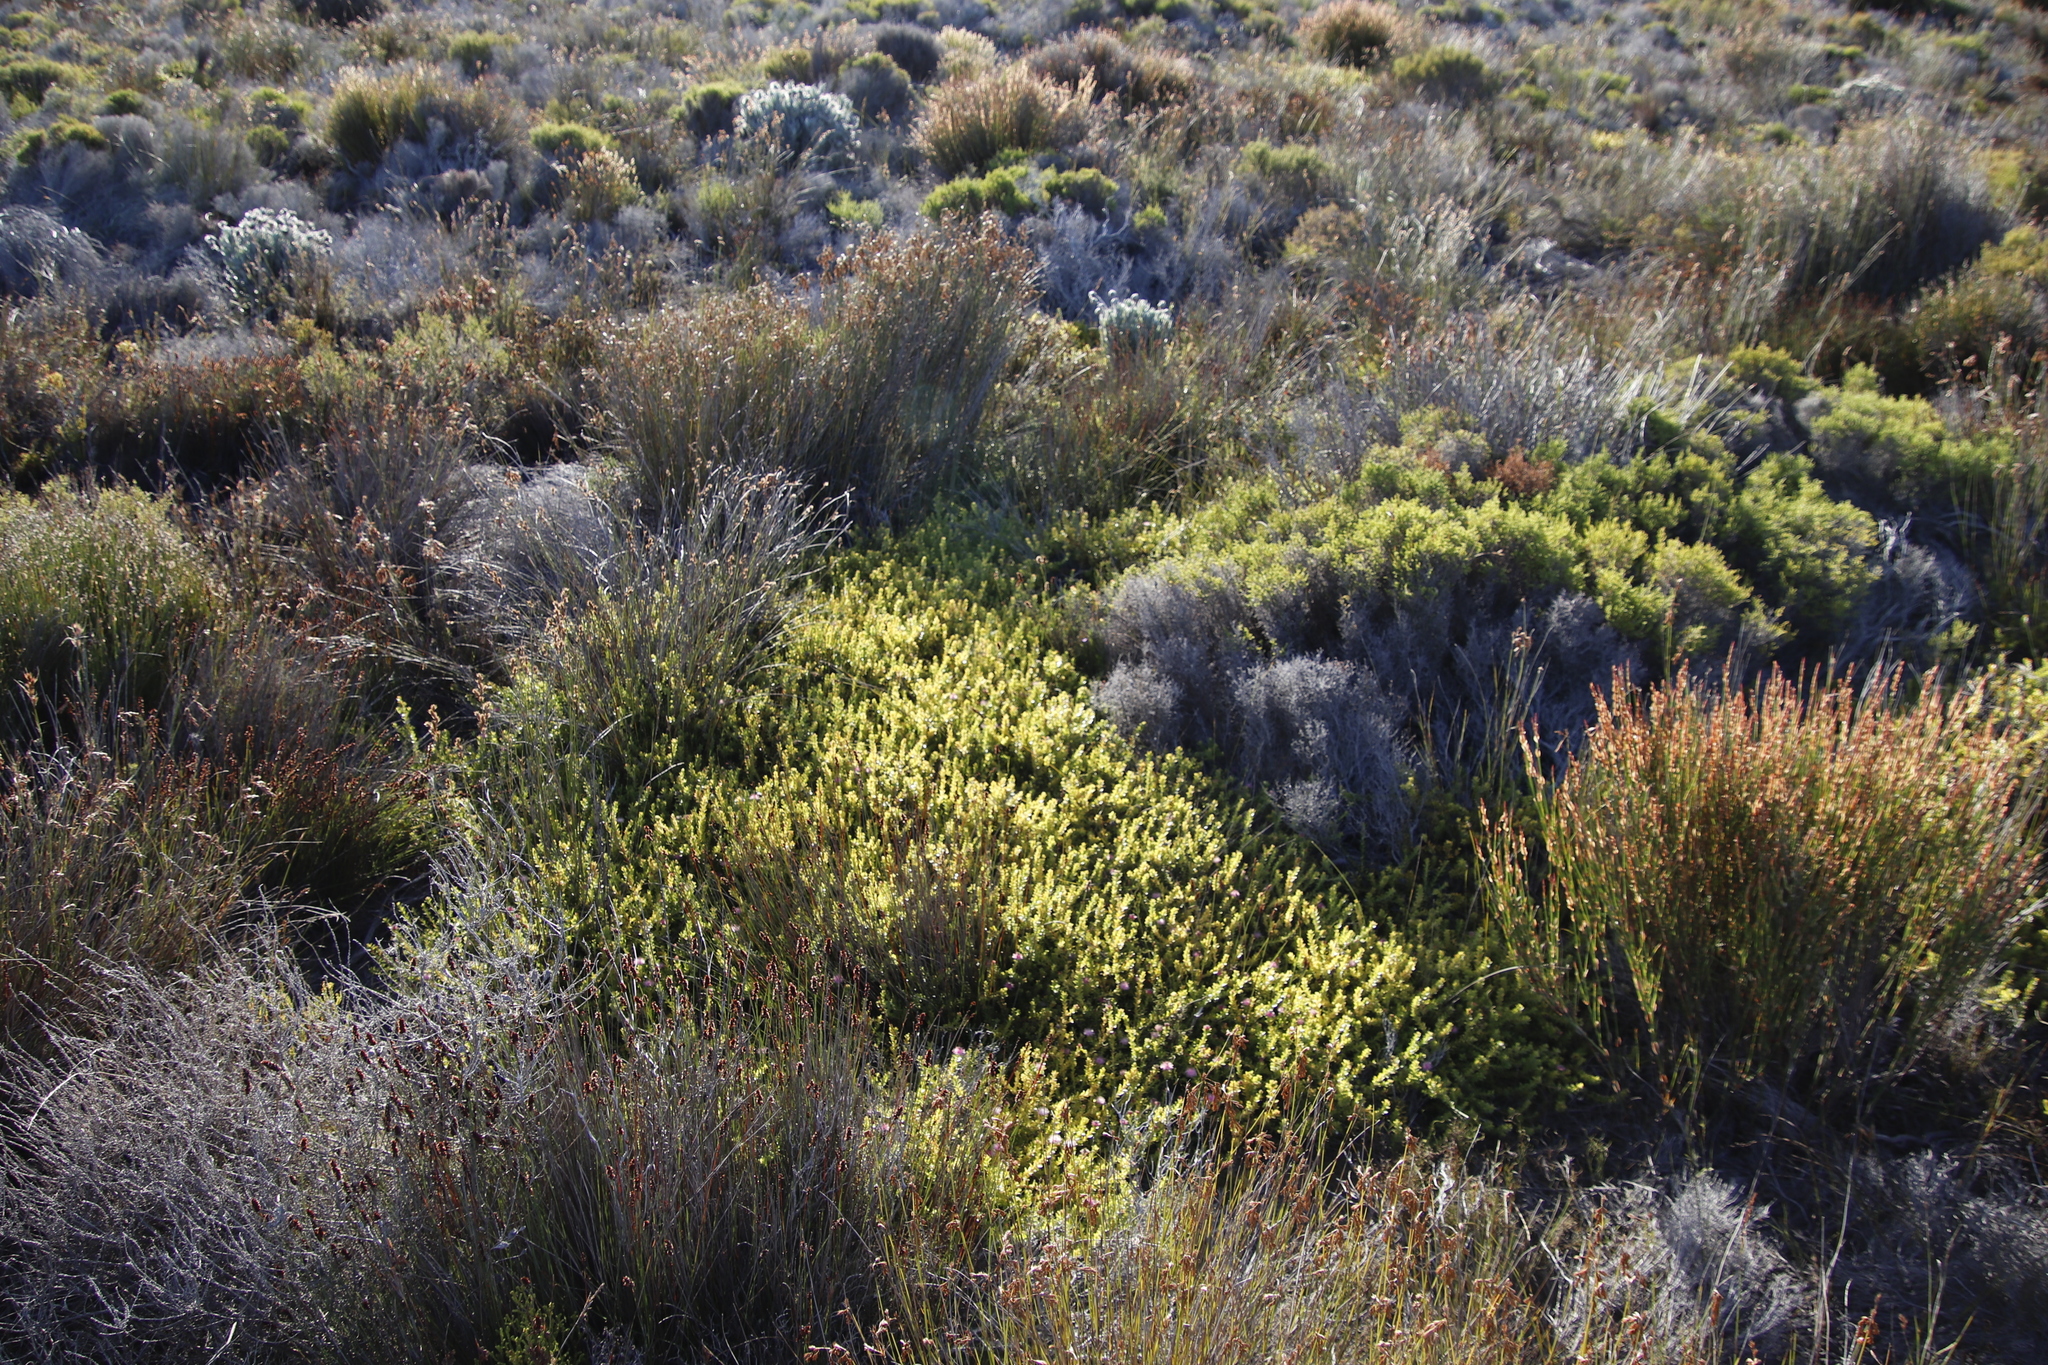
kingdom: Plantae
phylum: Tracheophyta
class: Magnoliopsida
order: Proteales
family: Proteaceae
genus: Diastella
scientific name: Diastella divaricata
